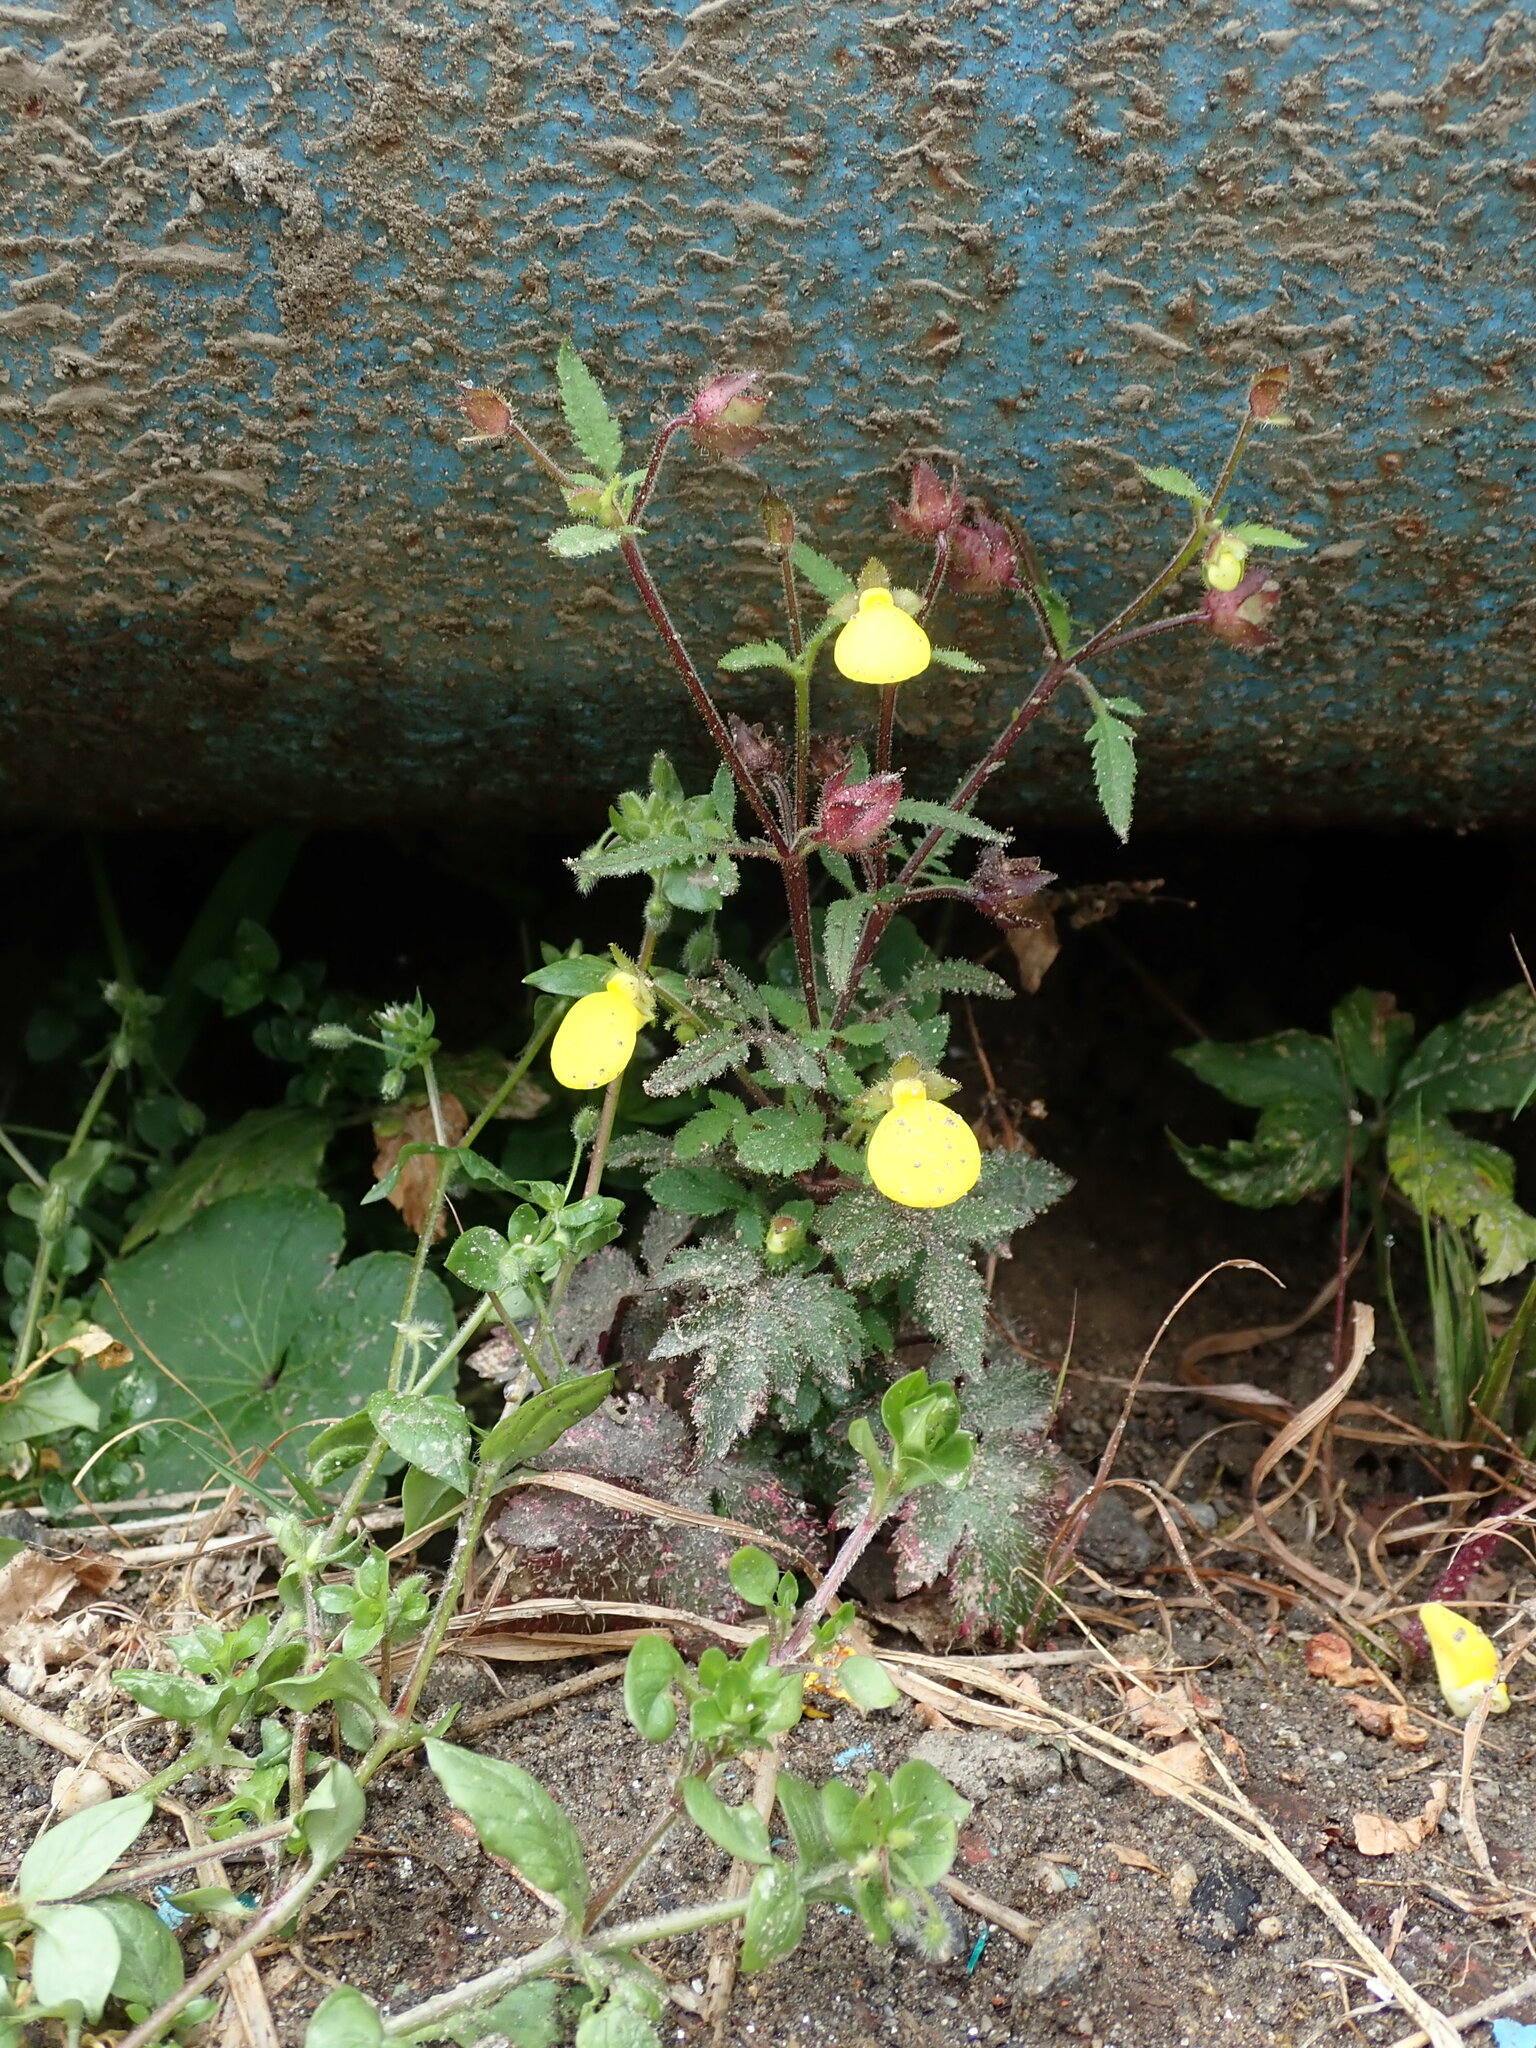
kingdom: Plantae
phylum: Tracheophyta
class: Magnoliopsida
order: Lamiales
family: Calceolariaceae
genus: Calceolaria
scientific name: Calceolaria tripartita
